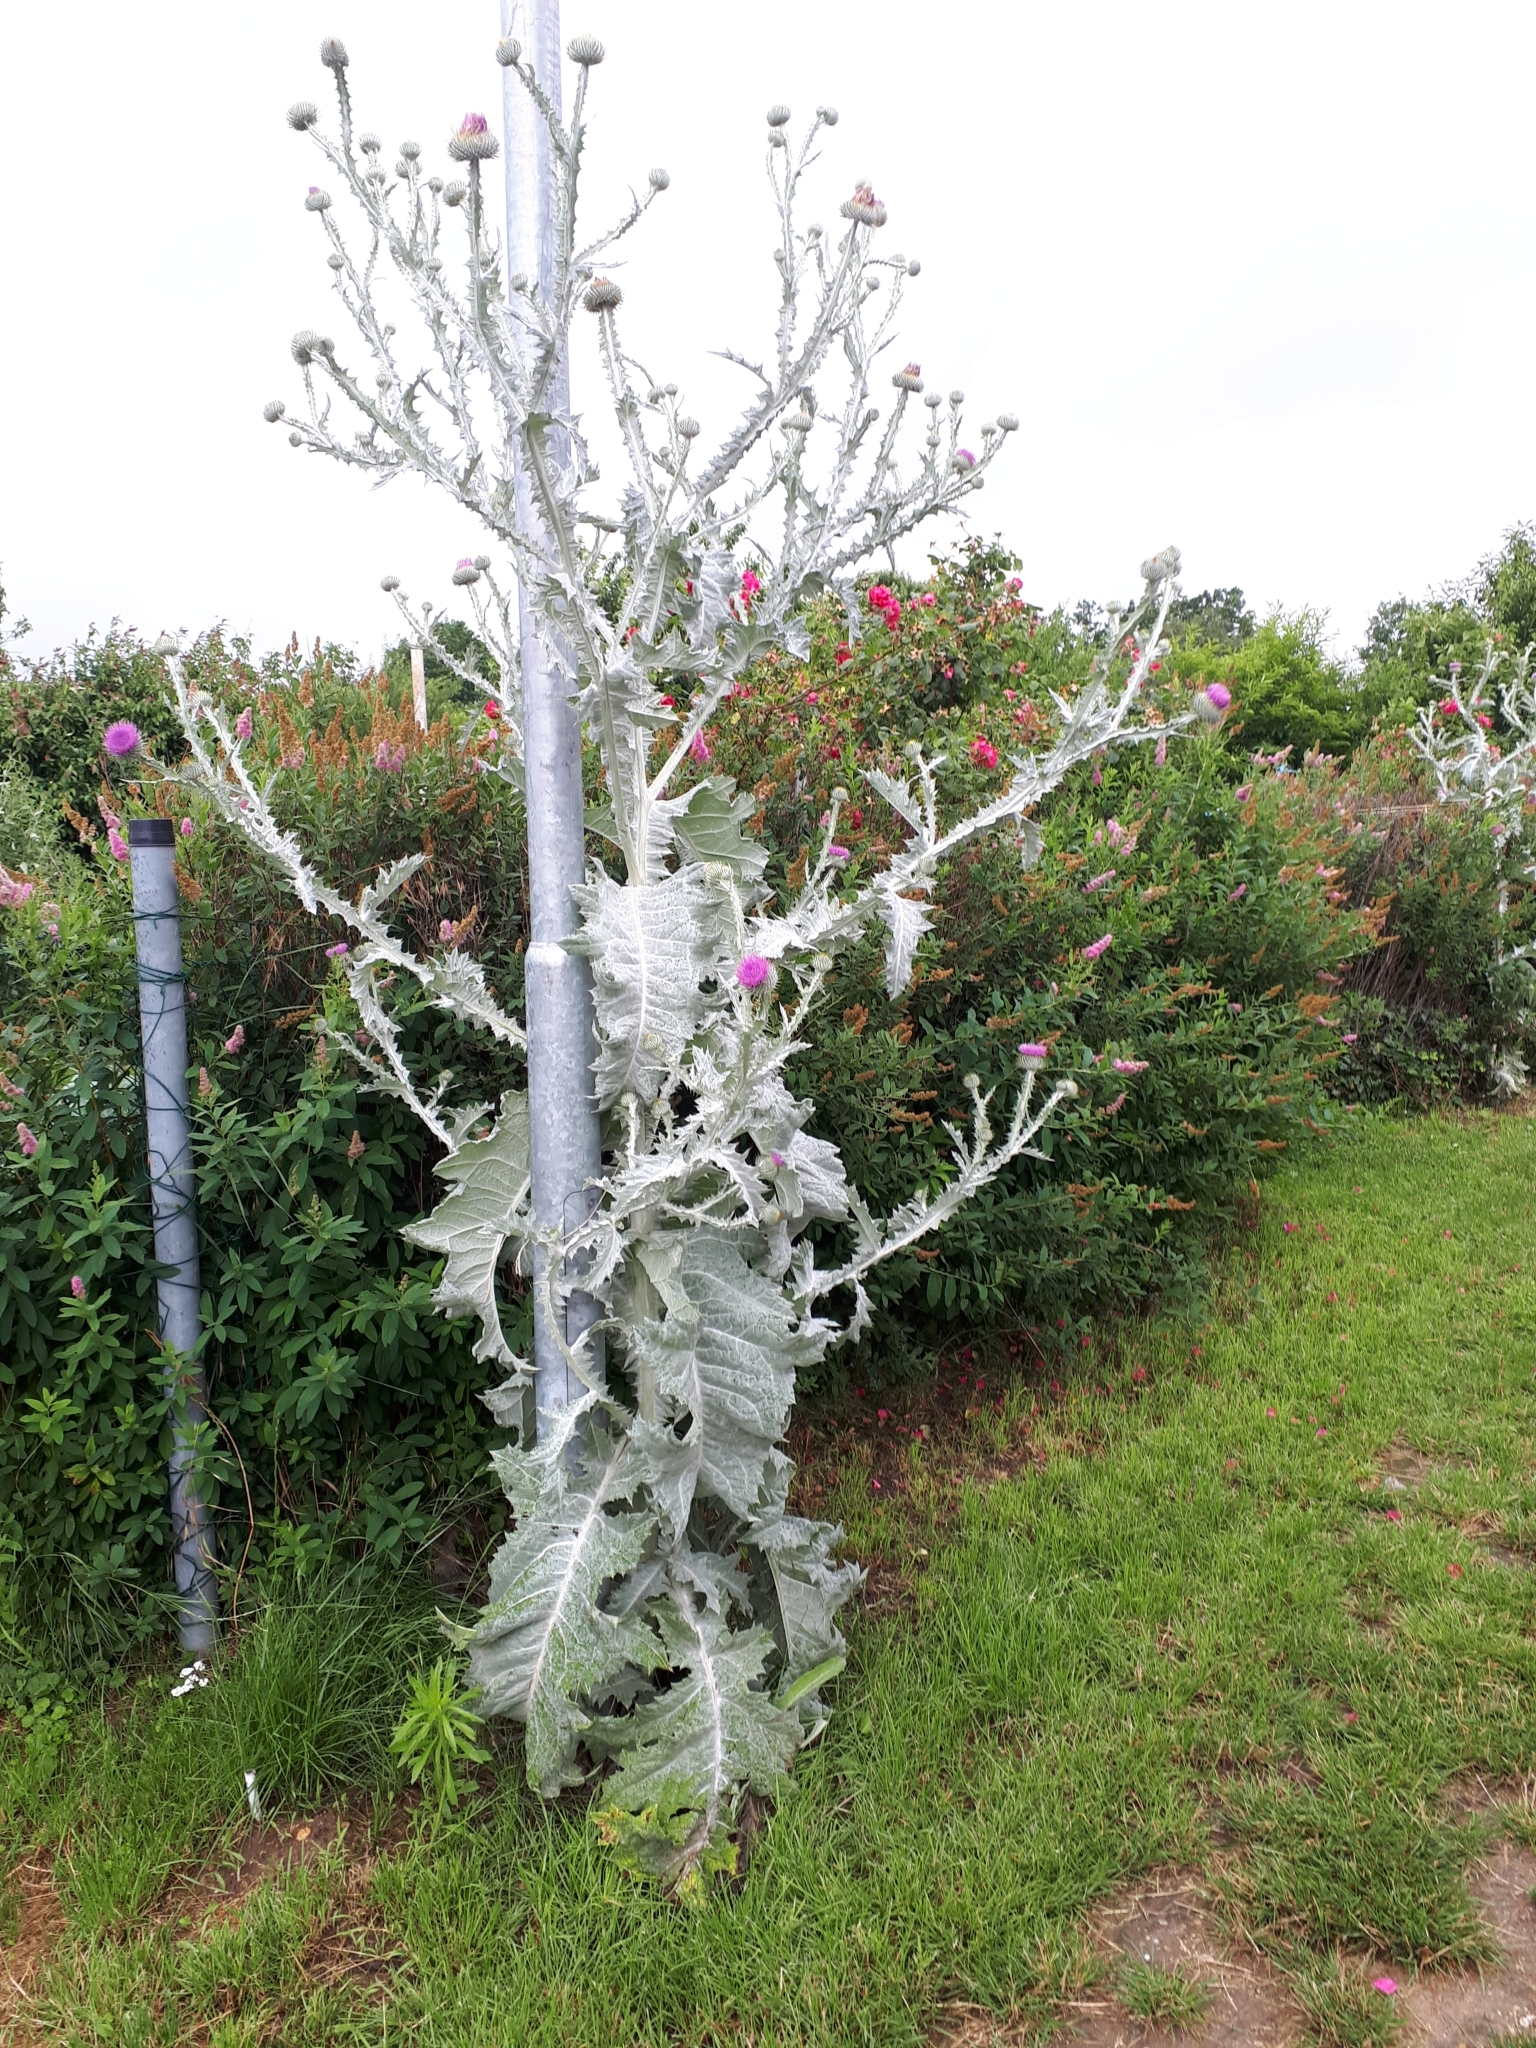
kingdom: Plantae
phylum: Tracheophyta
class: Magnoliopsida
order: Asterales
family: Asteraceae
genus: Onopordum
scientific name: Onopordum acanthium
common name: Scotch thistle
